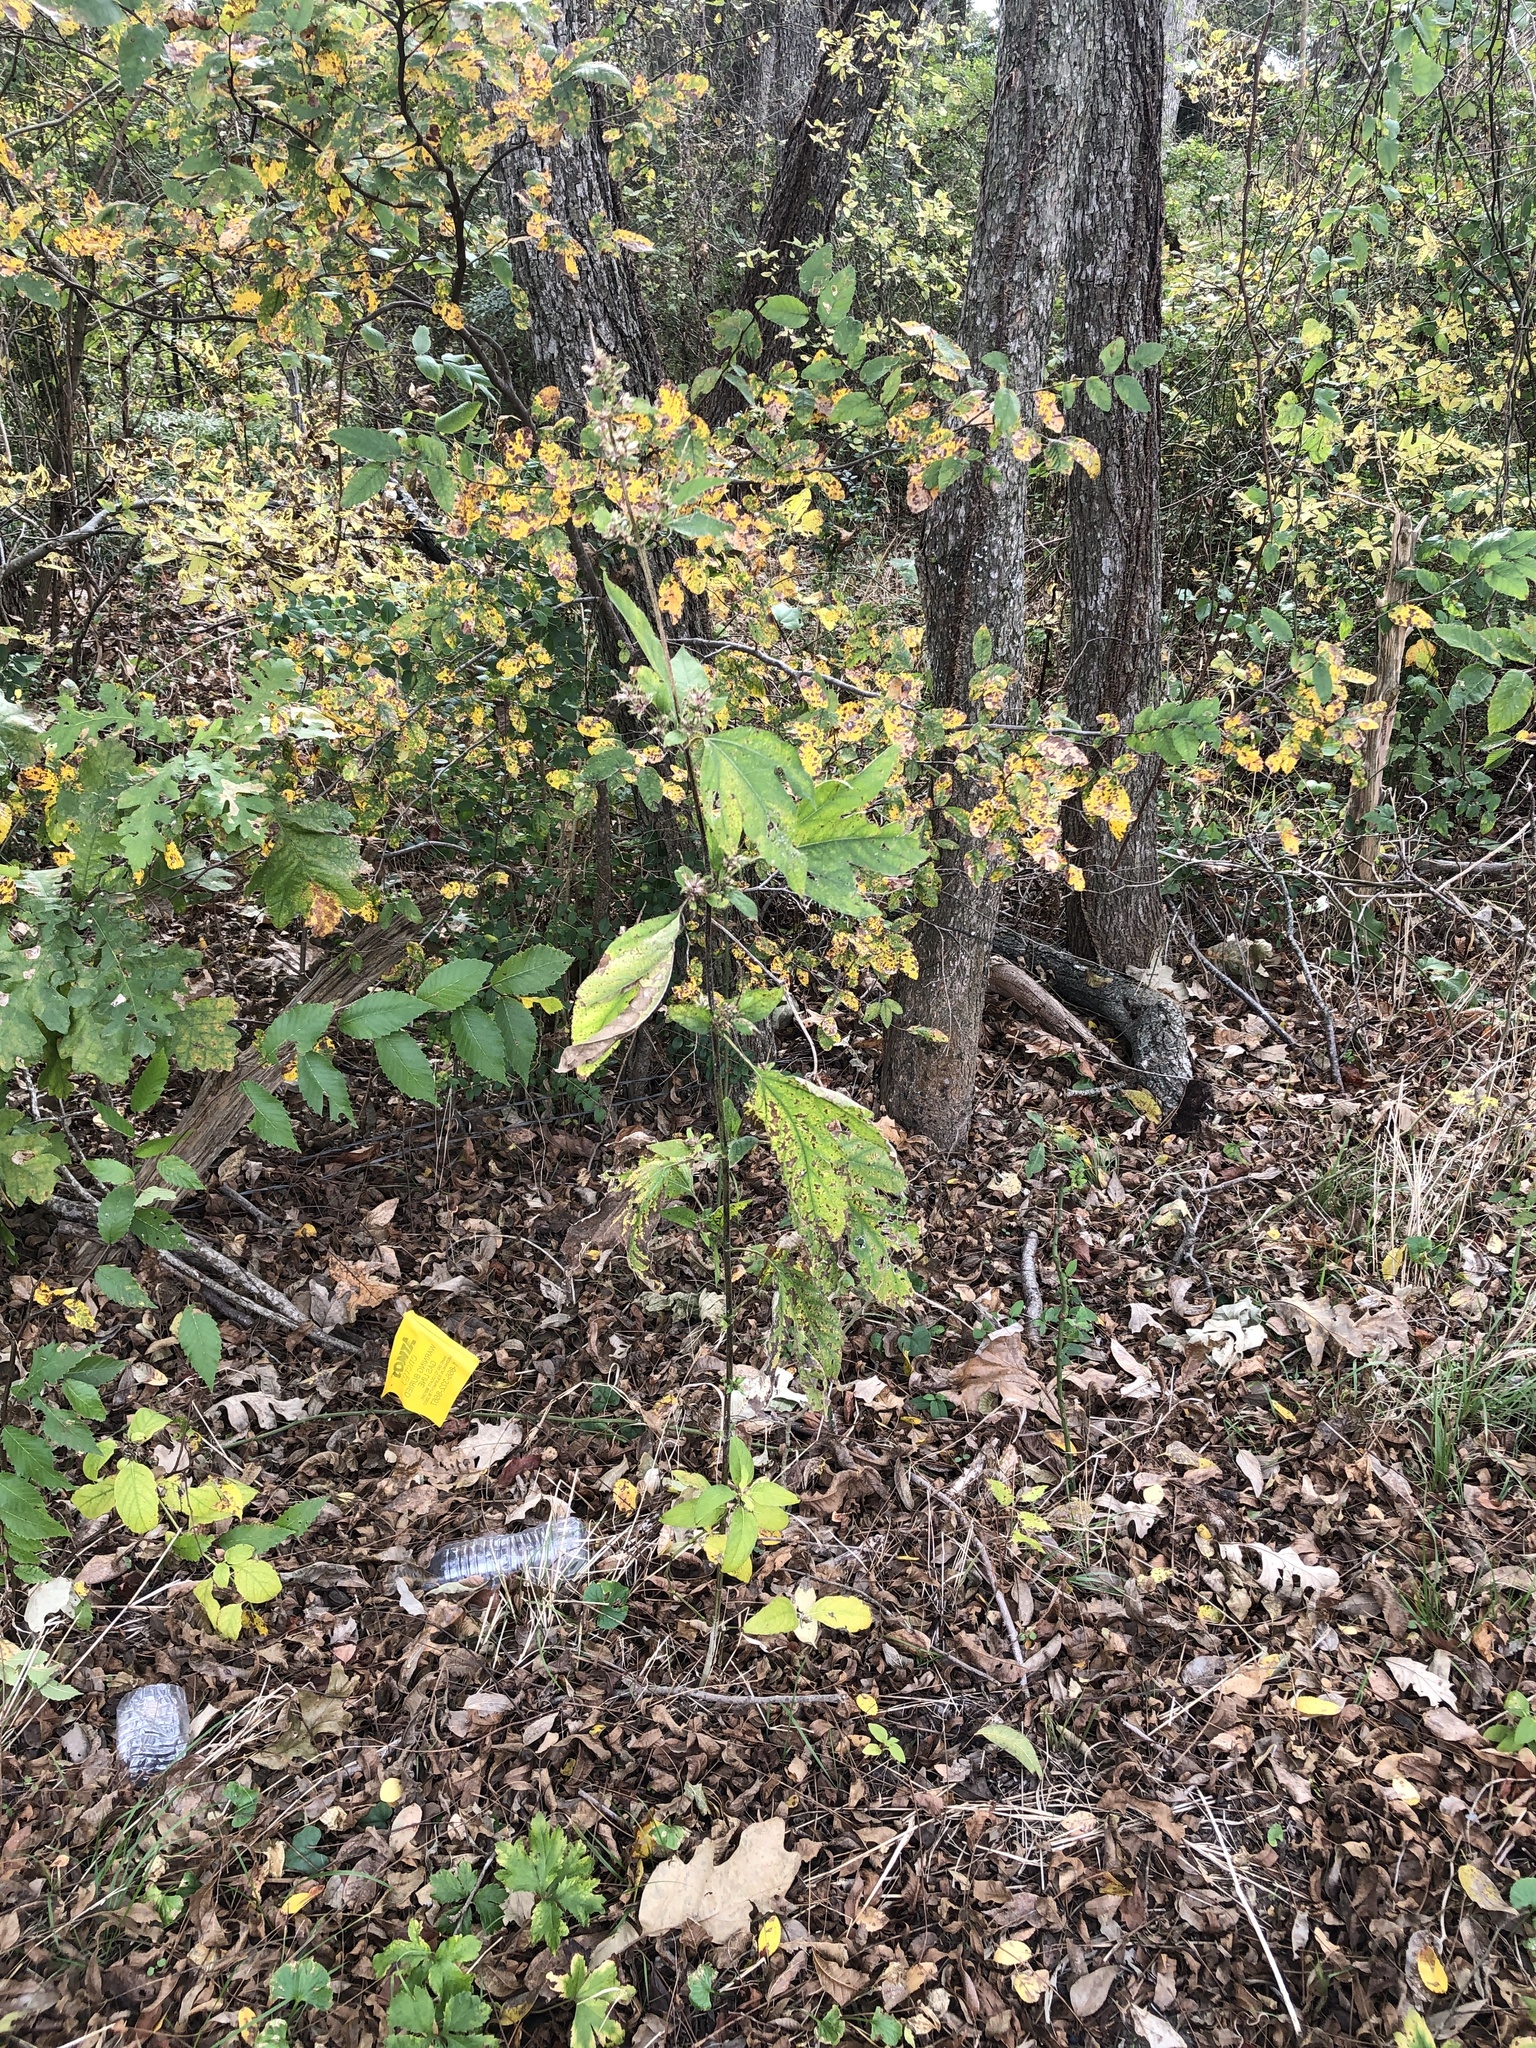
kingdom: Plantae
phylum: Tracheophyta
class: Magnoliopsida
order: Asterales
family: Asteraceae
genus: Ambrosia
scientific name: Ambrosia trifida
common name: Giant ragweed
